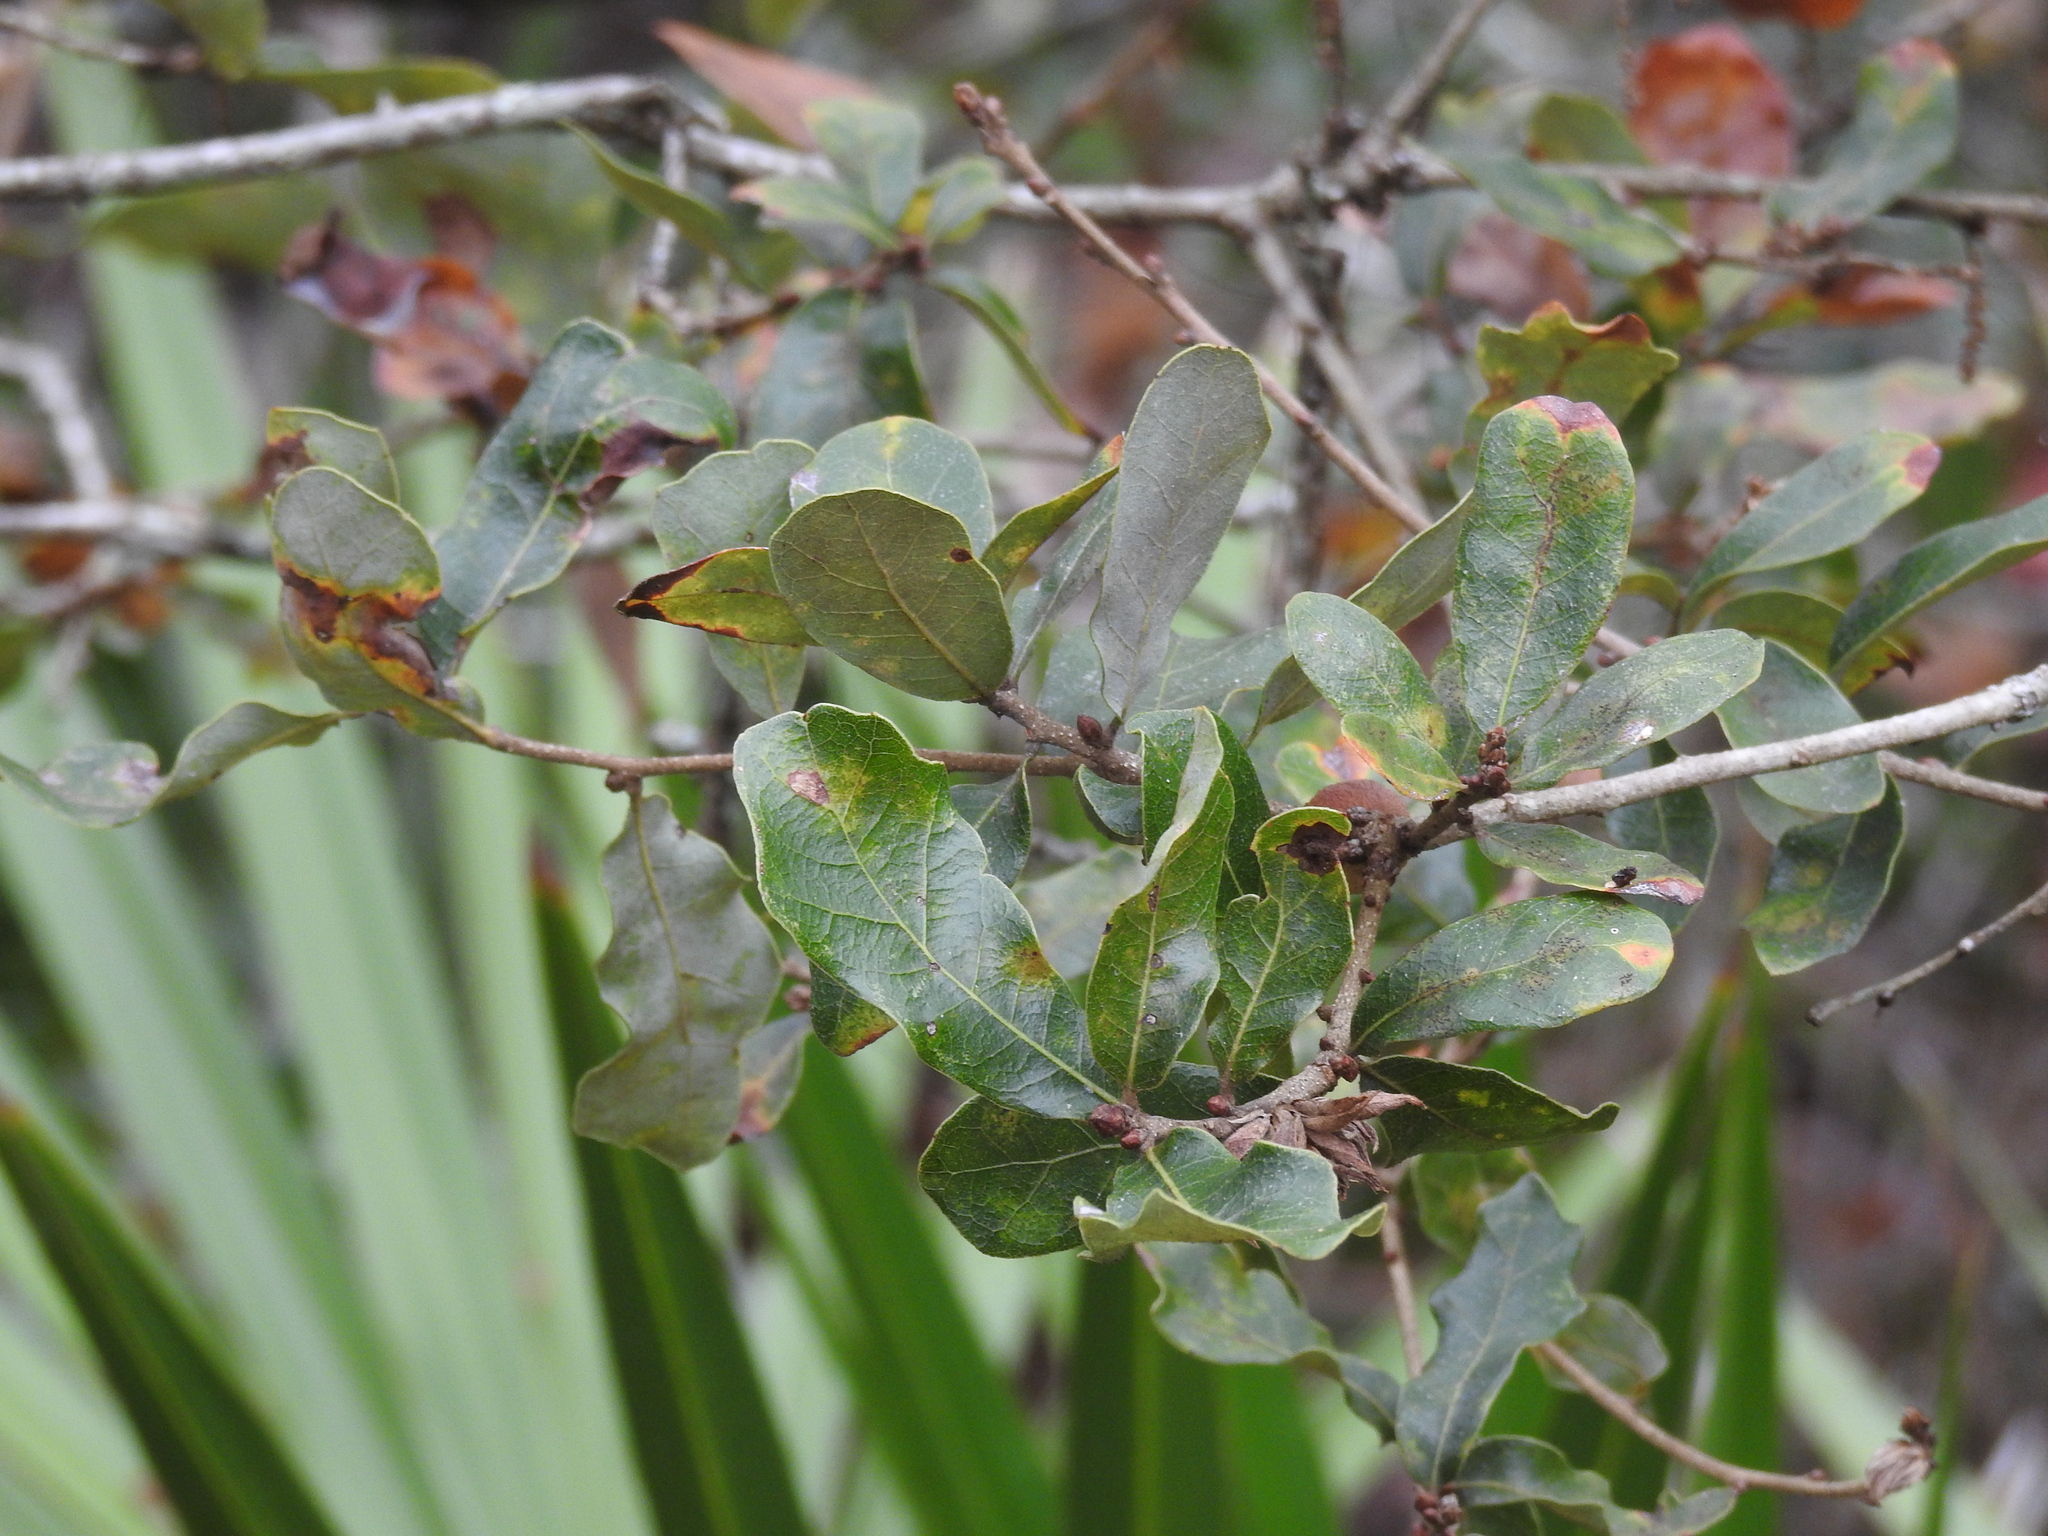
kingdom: Plantae
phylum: Tracheophyta
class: Magnoliopsida
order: Fagales
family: Fagaceae
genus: Quercus
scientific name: Quercus chapmanii
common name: Chapman oak
